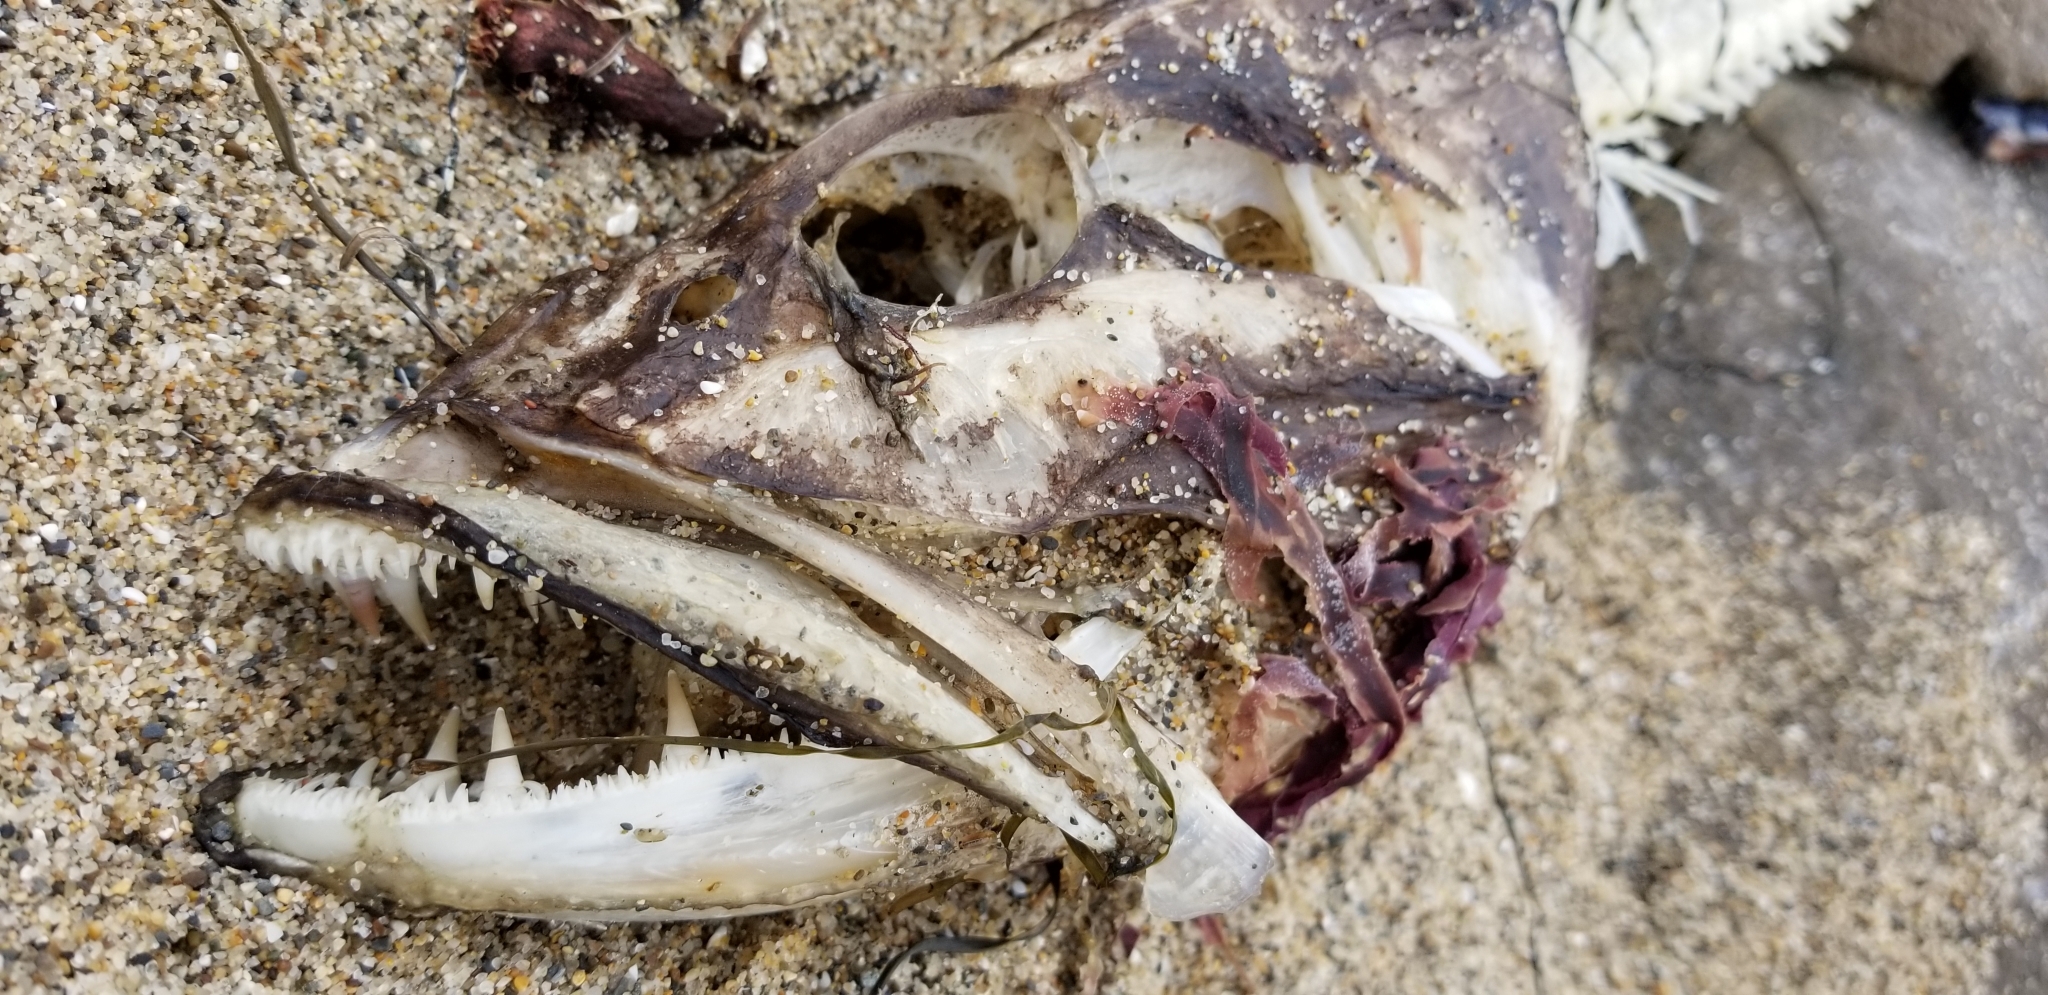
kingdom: Animalia
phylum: Chordata
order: Scorpaeniformes
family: Hexagrammidae
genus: Ophiodon
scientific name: Ophiodon elongatus
